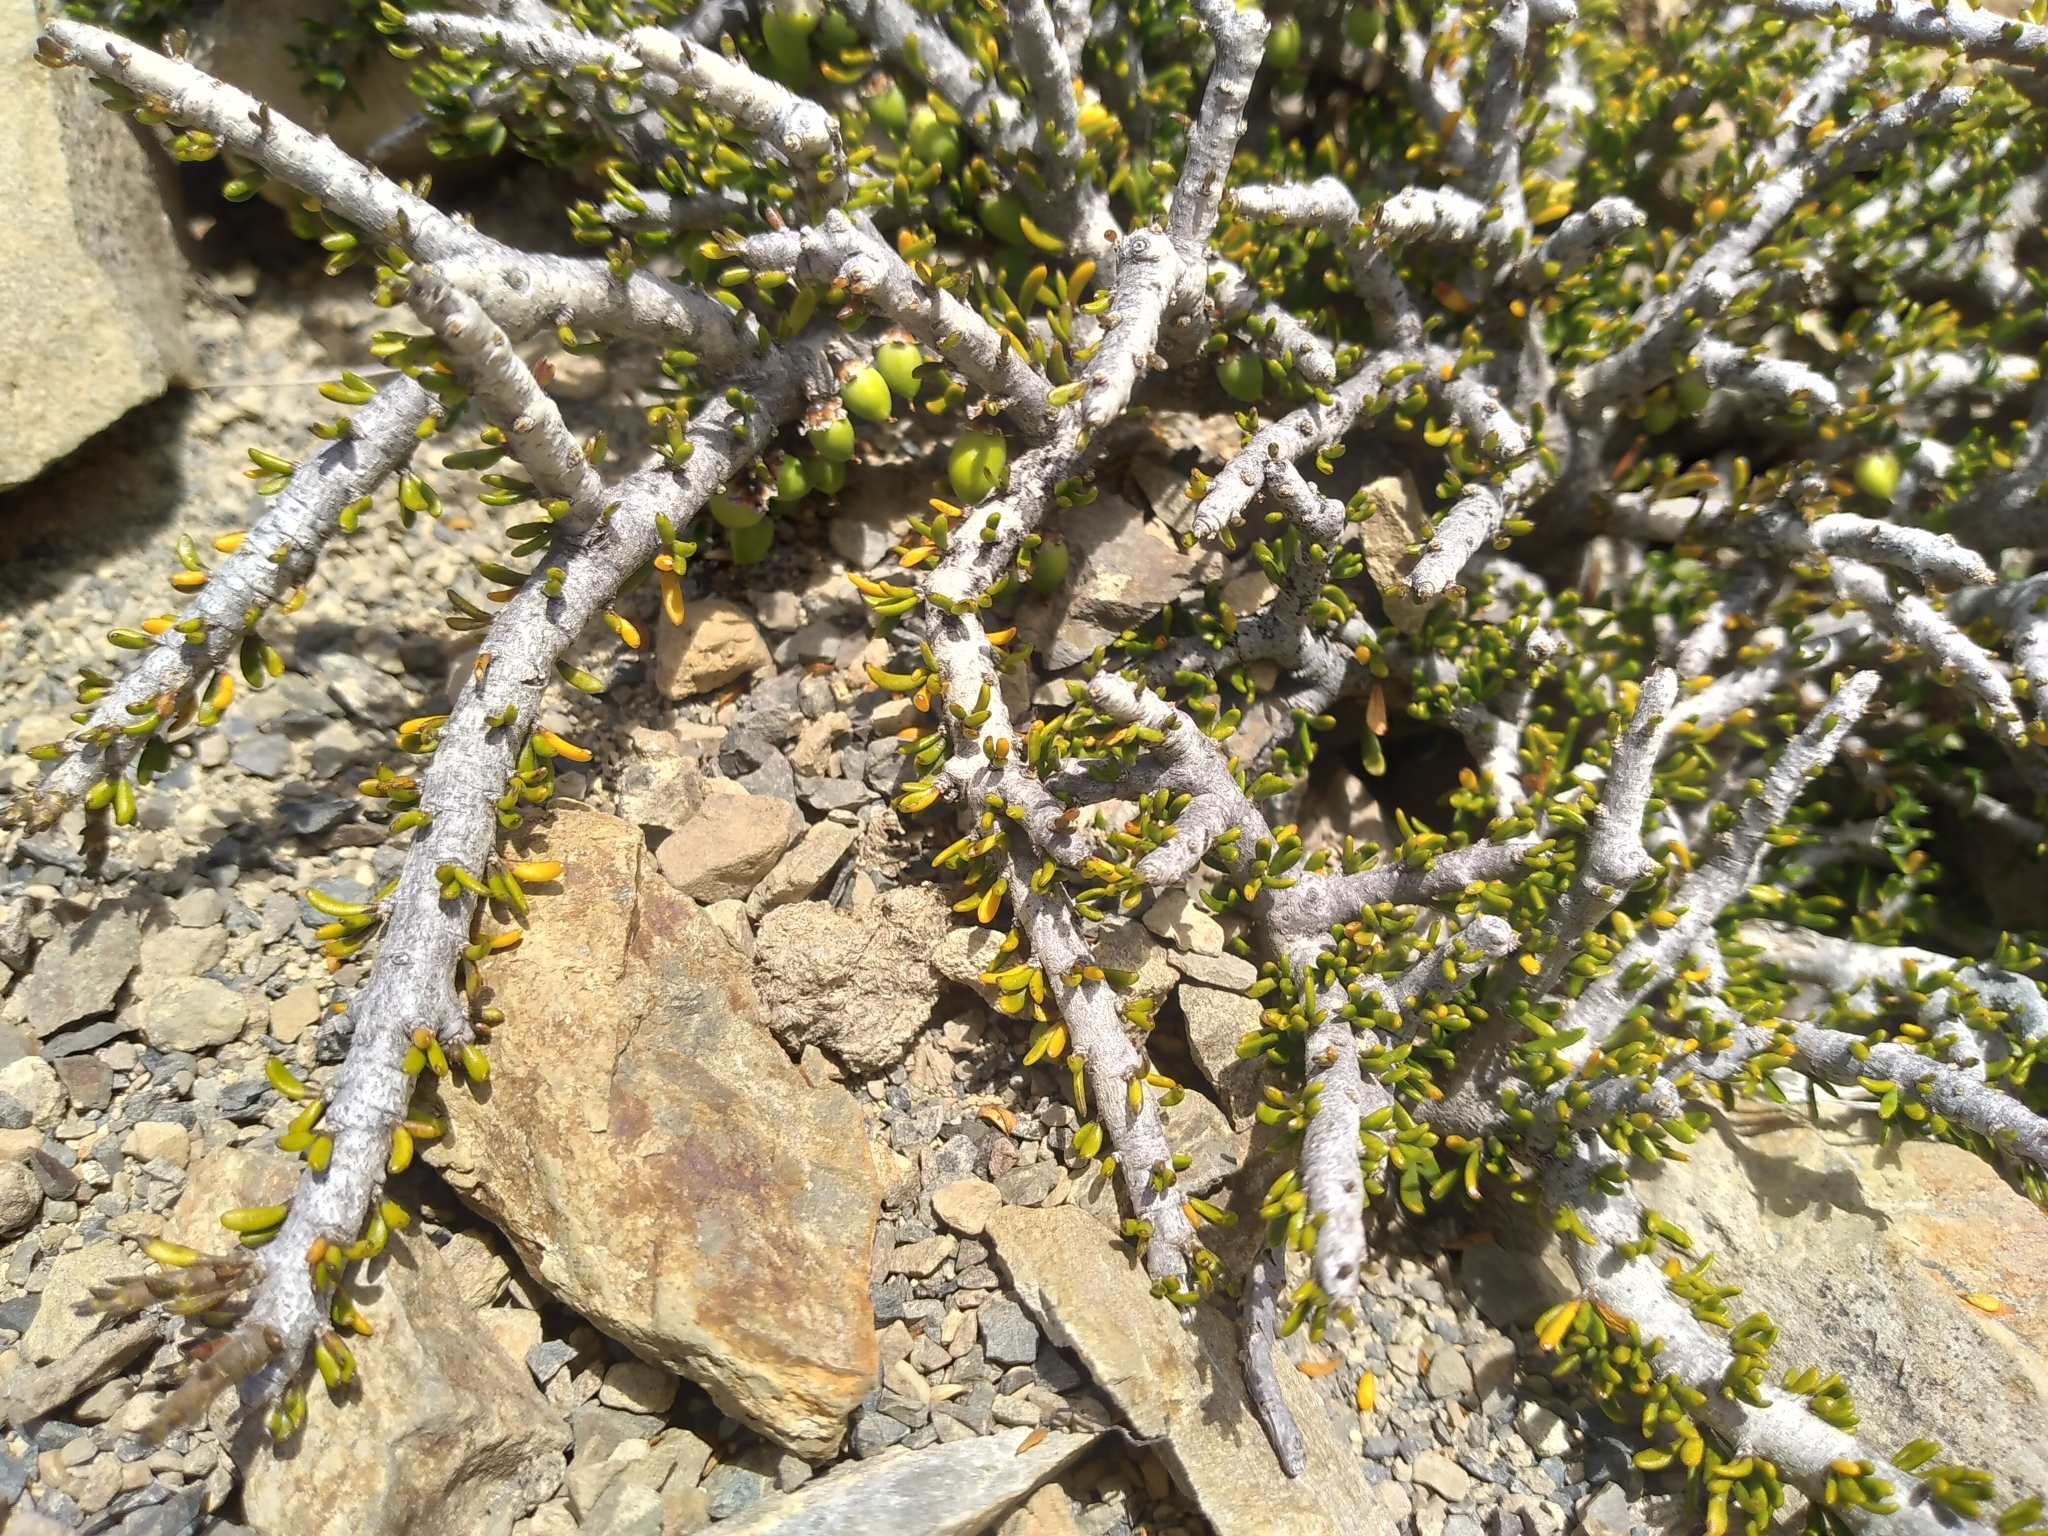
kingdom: Plantae
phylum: Tracheophyta
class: Magnoliopsida
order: Malpighiales
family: Violaceae
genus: Melicytus
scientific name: Melicytus alpinus
